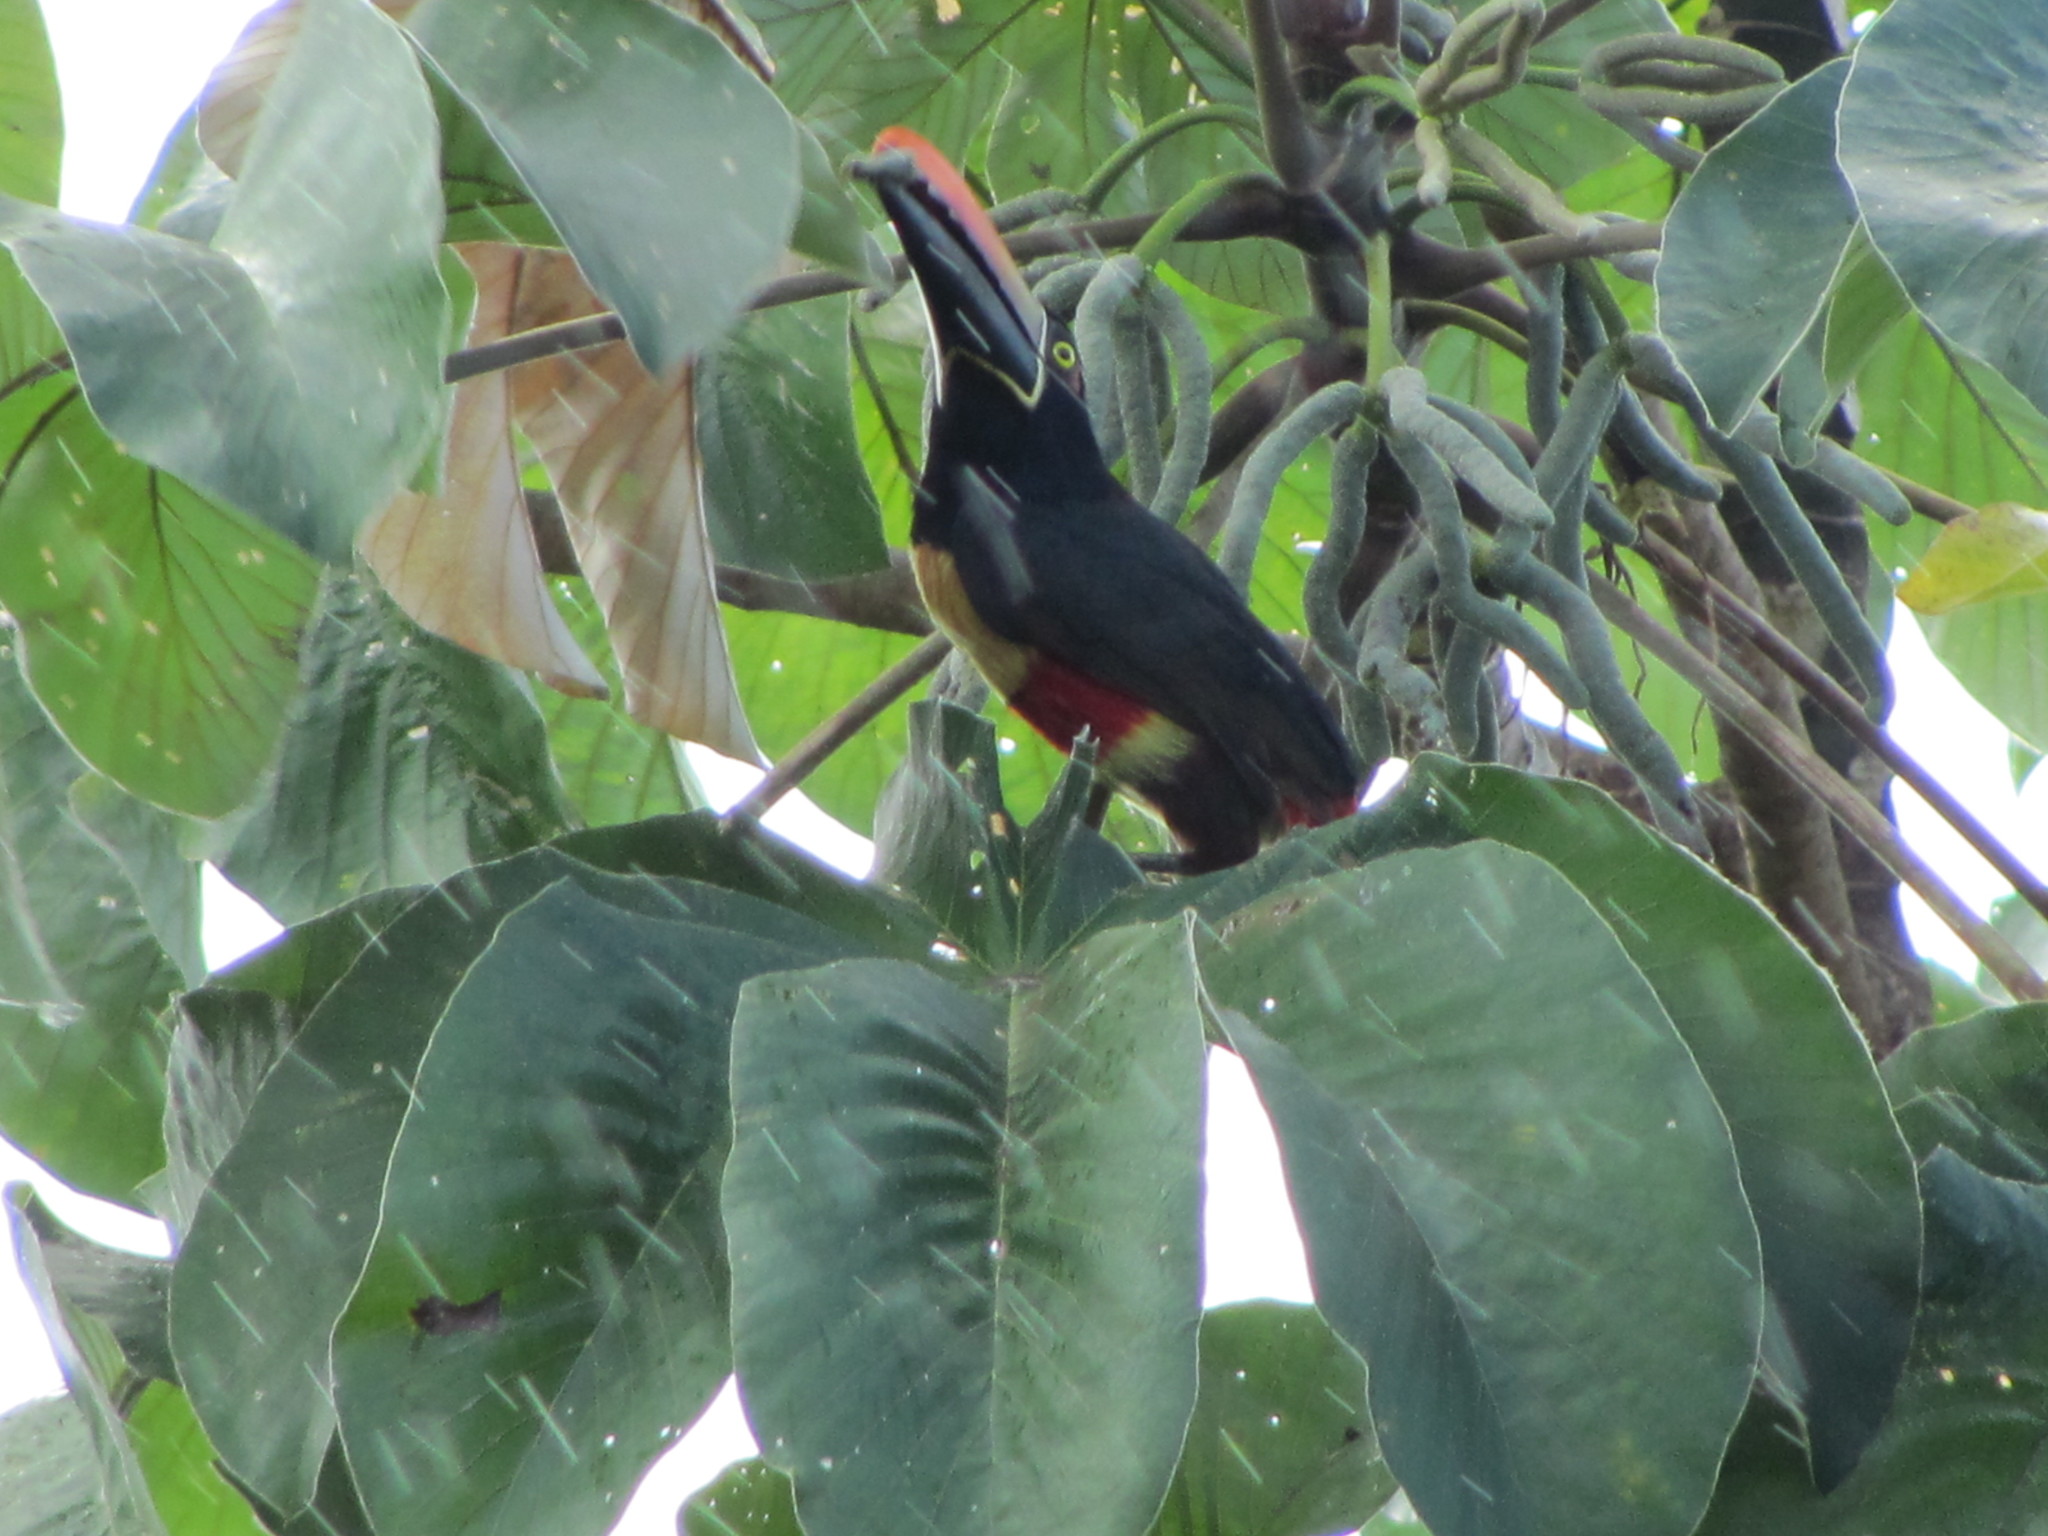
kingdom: Animalia
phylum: Chordata
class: Aves
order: Piciformes
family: Ramphastidae
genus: Pteroglossus
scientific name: Pteroglossus frantzii
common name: Fiery-billed aracari
